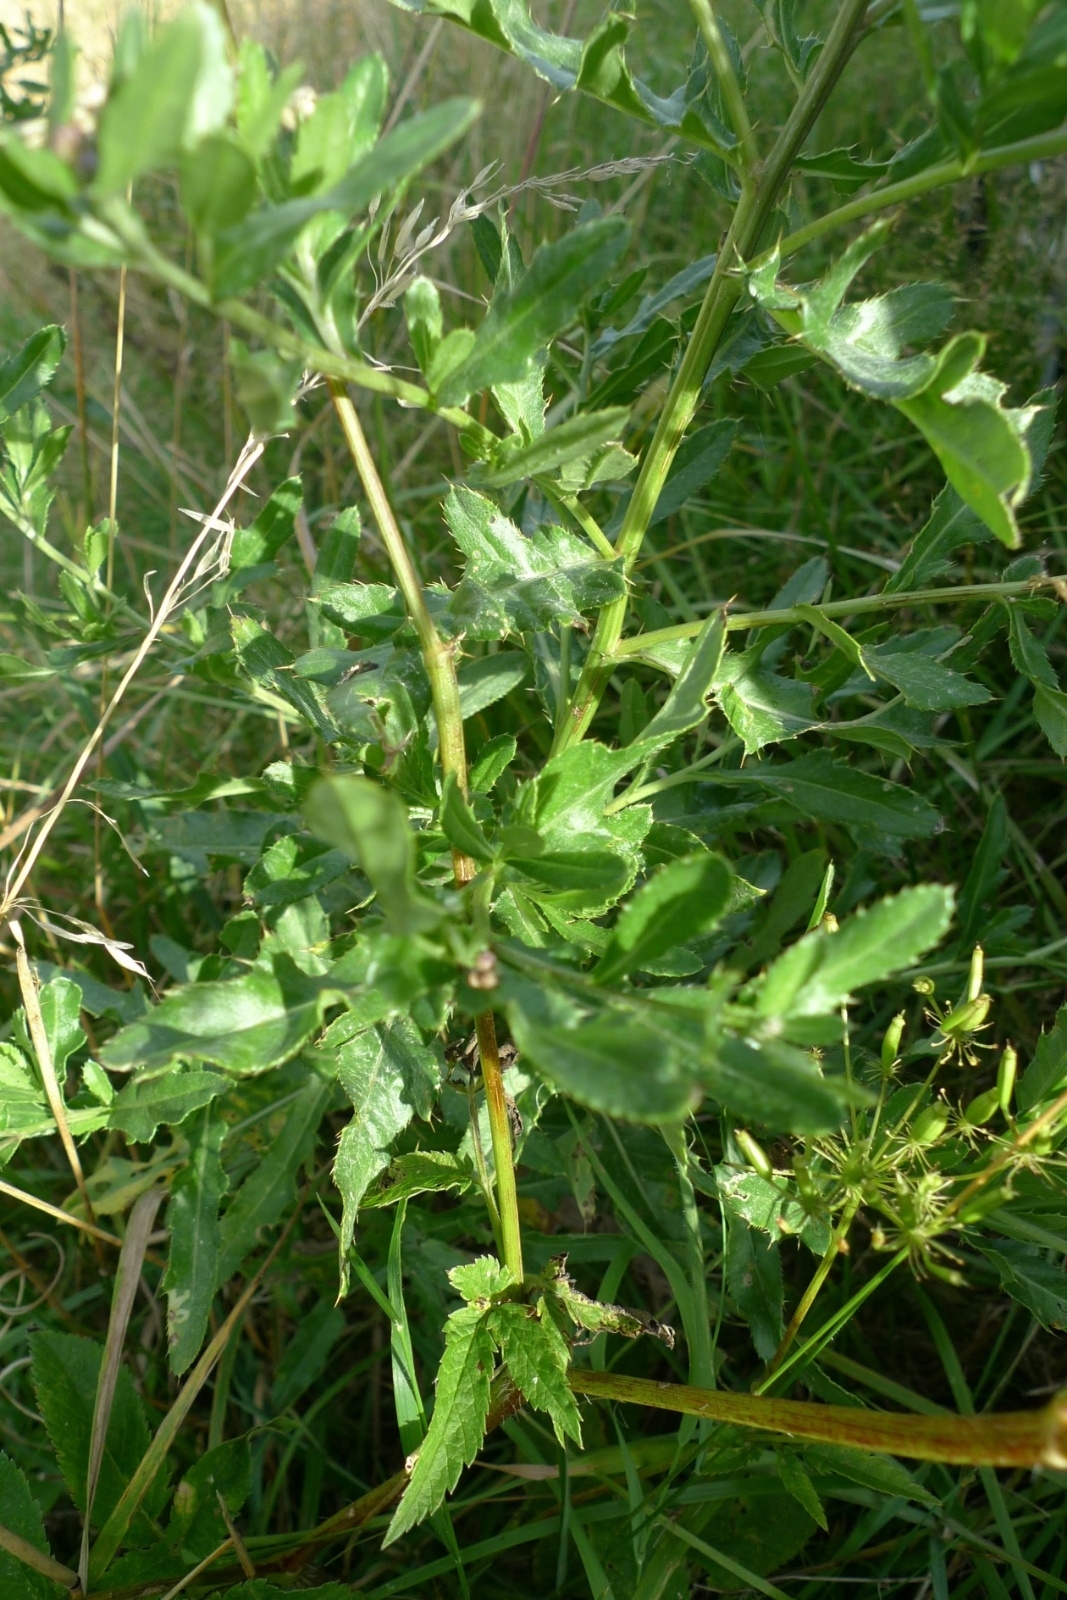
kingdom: Plantae
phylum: Tracheophyta
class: Magnoliopsida
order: Asterales
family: Asteraceae
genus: Cirsium
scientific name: Cirsium arvense
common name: Creeping thistle
